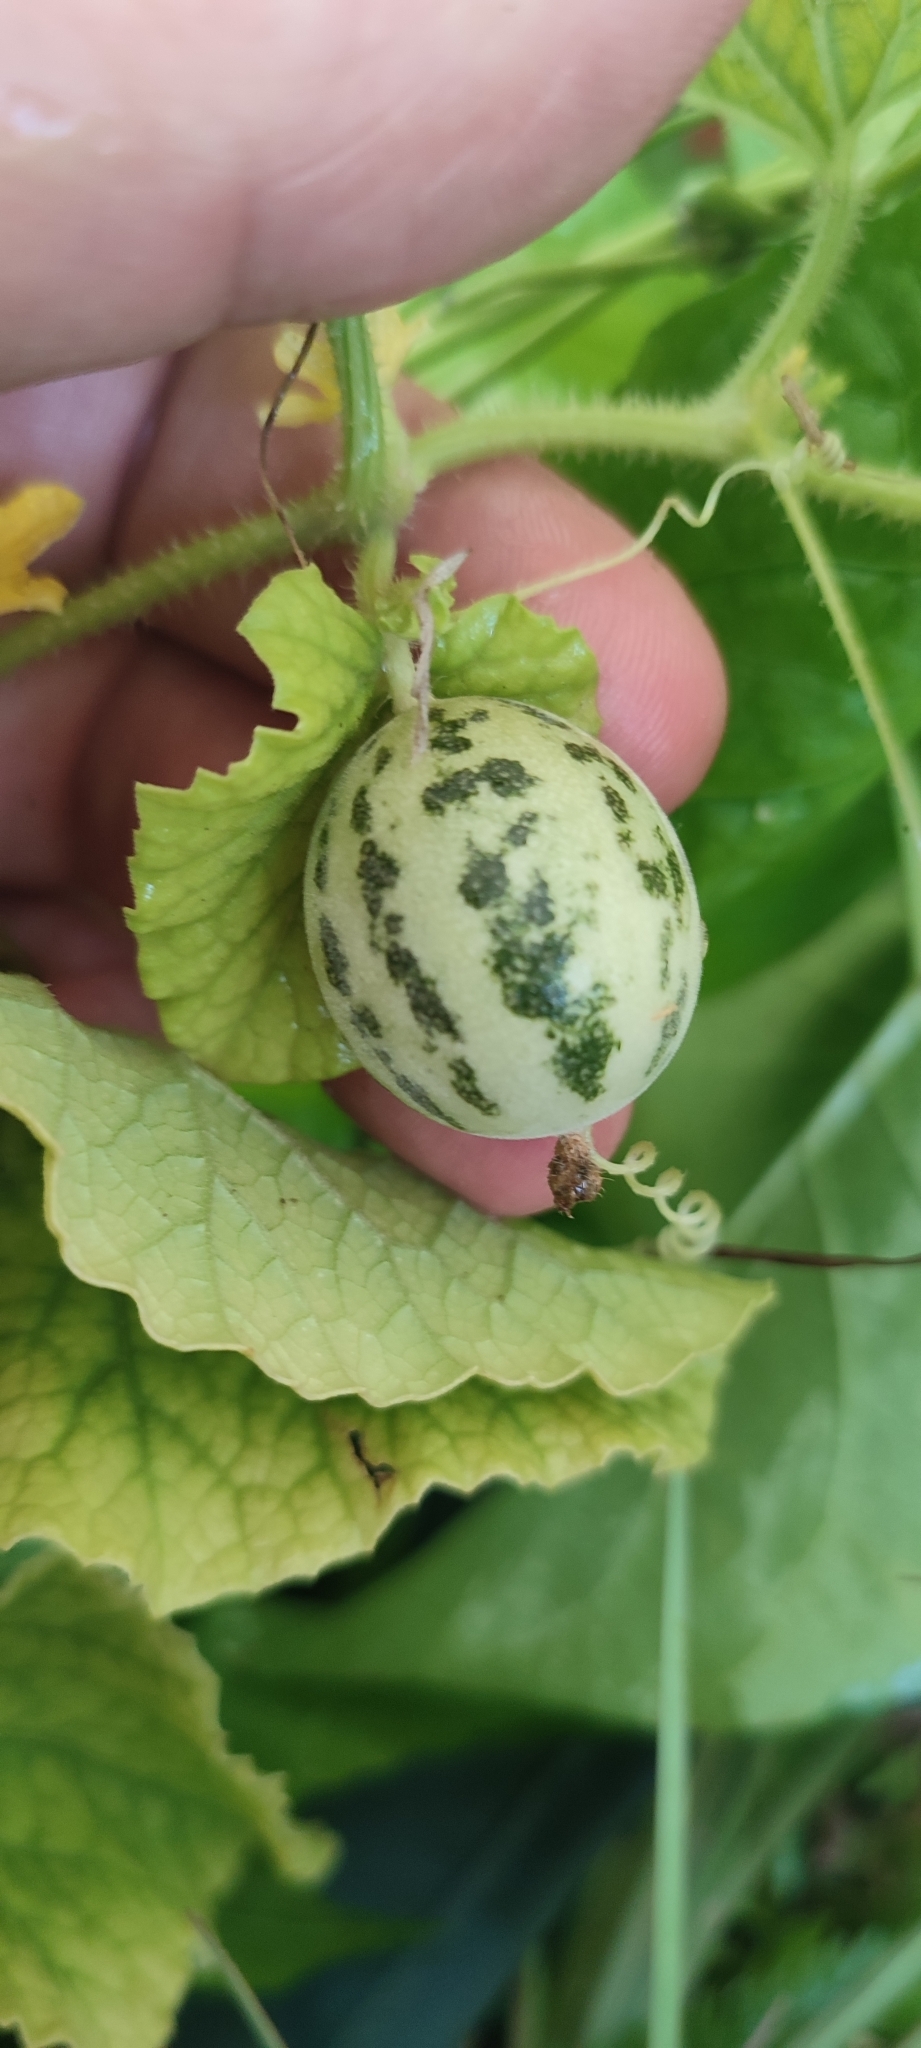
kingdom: Plantae
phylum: Tracheophyta
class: Magnoliopsida
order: Cucurbitales
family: Cucurbitaceae
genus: Cucumis
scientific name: Cucumis melo
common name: Melon
